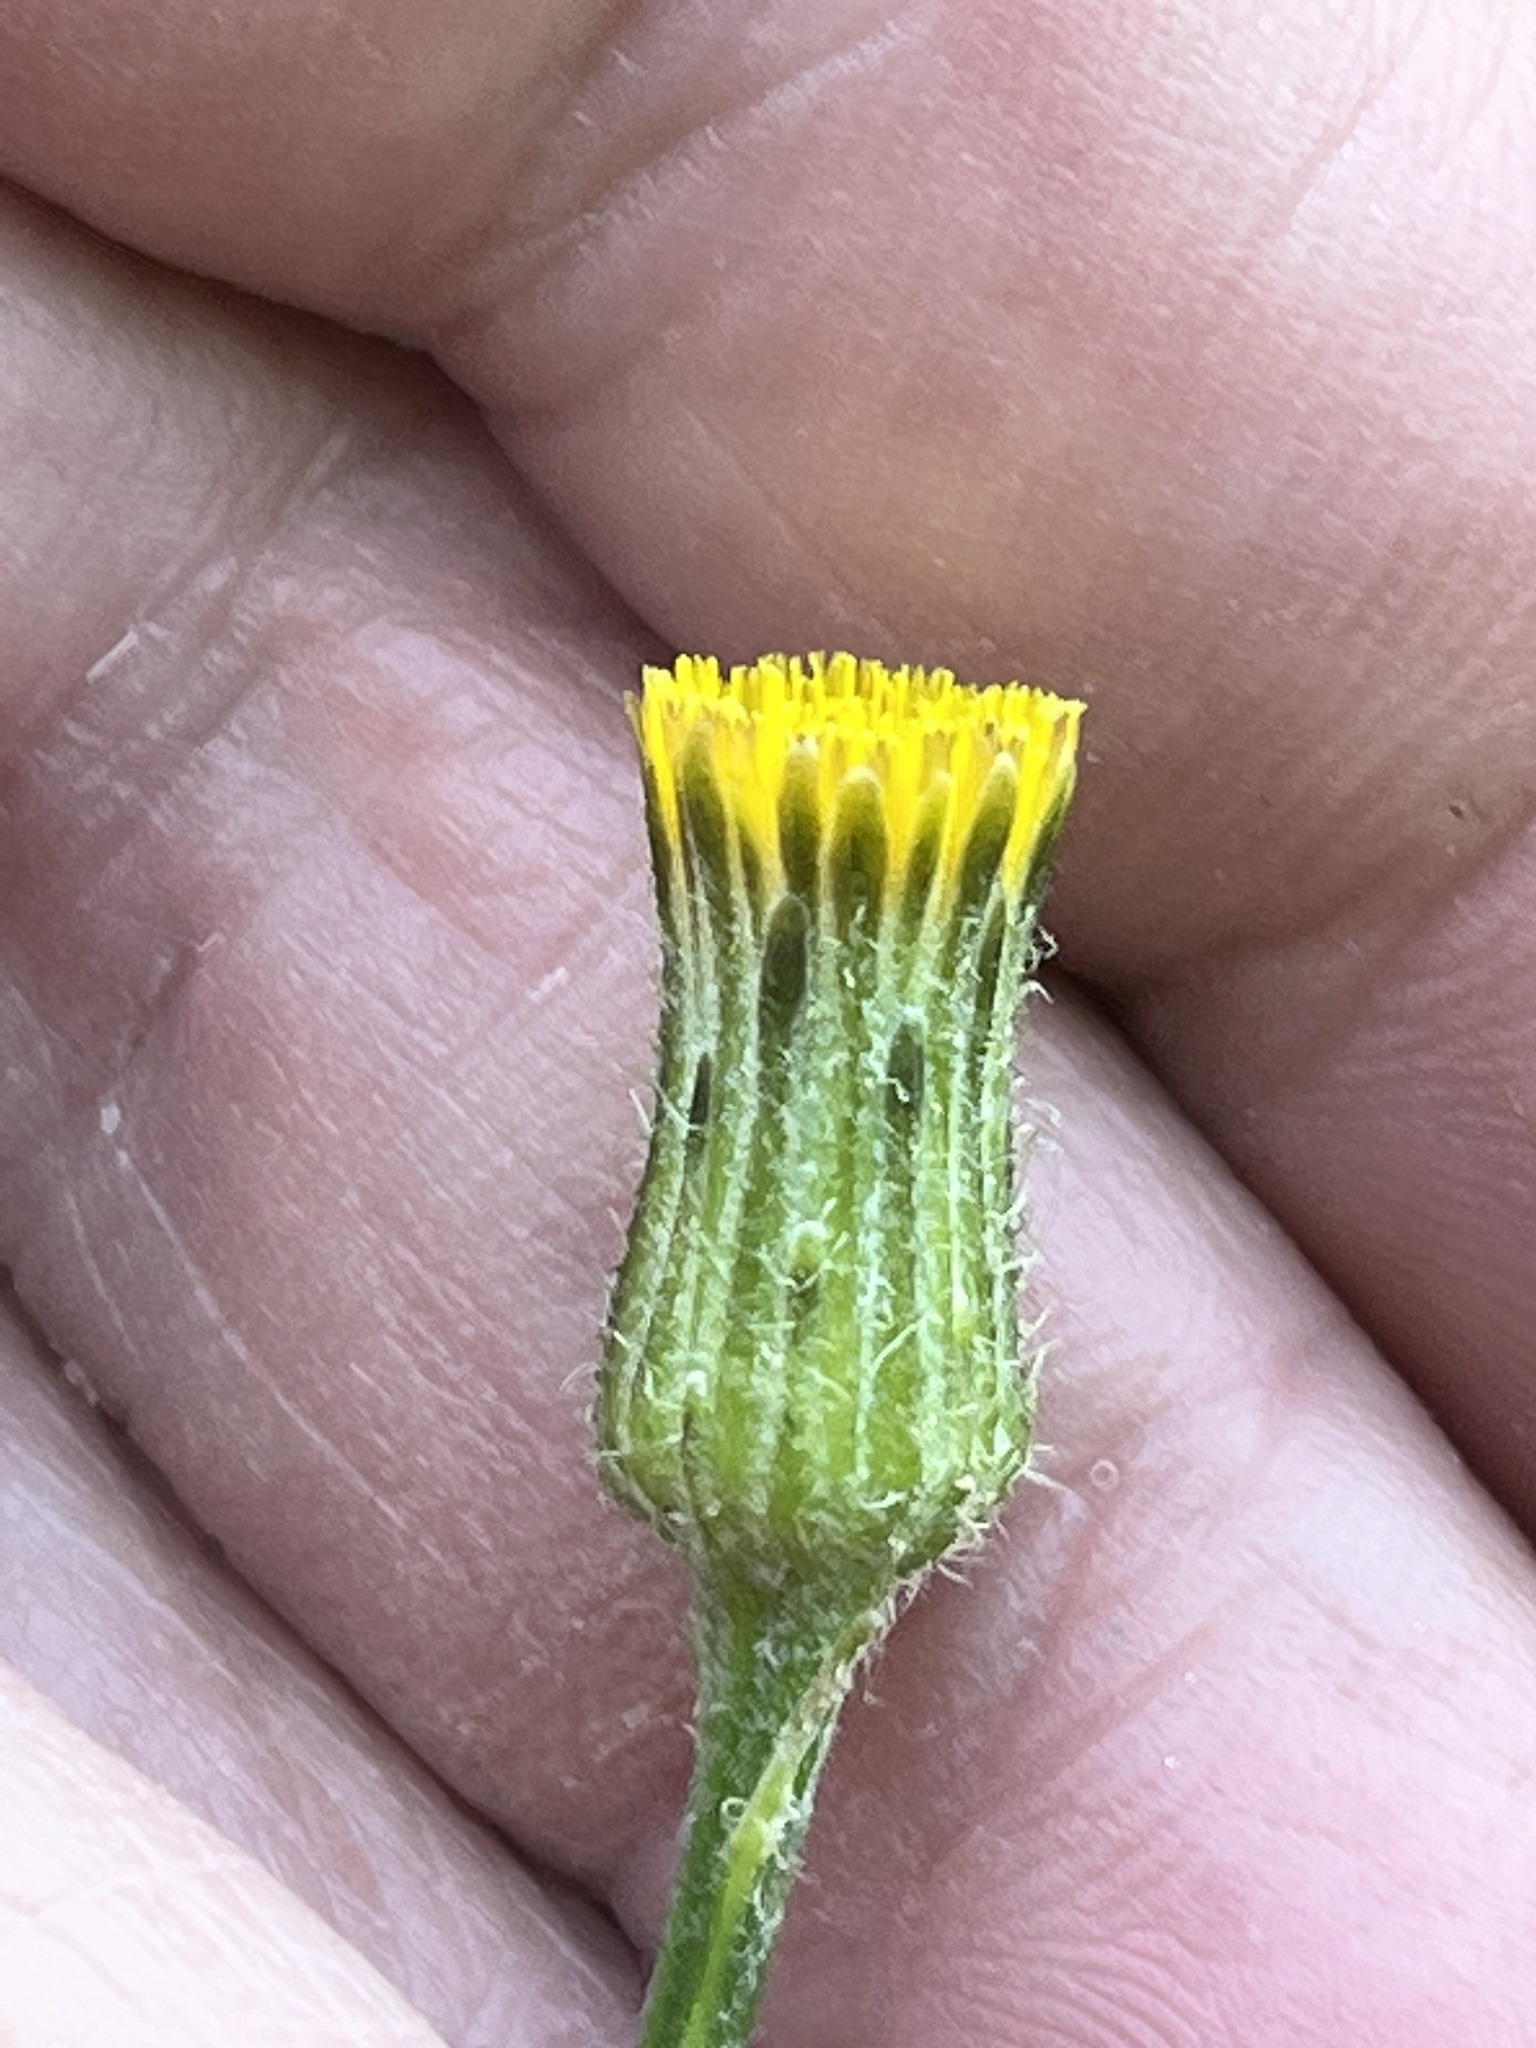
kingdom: Plantae
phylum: Tracheophyta
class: Magnoliopsida
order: Asterales
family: Asteraceae
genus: Hypochaeris
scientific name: Hypochaeris chillensis
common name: Brazilian cat's ear
